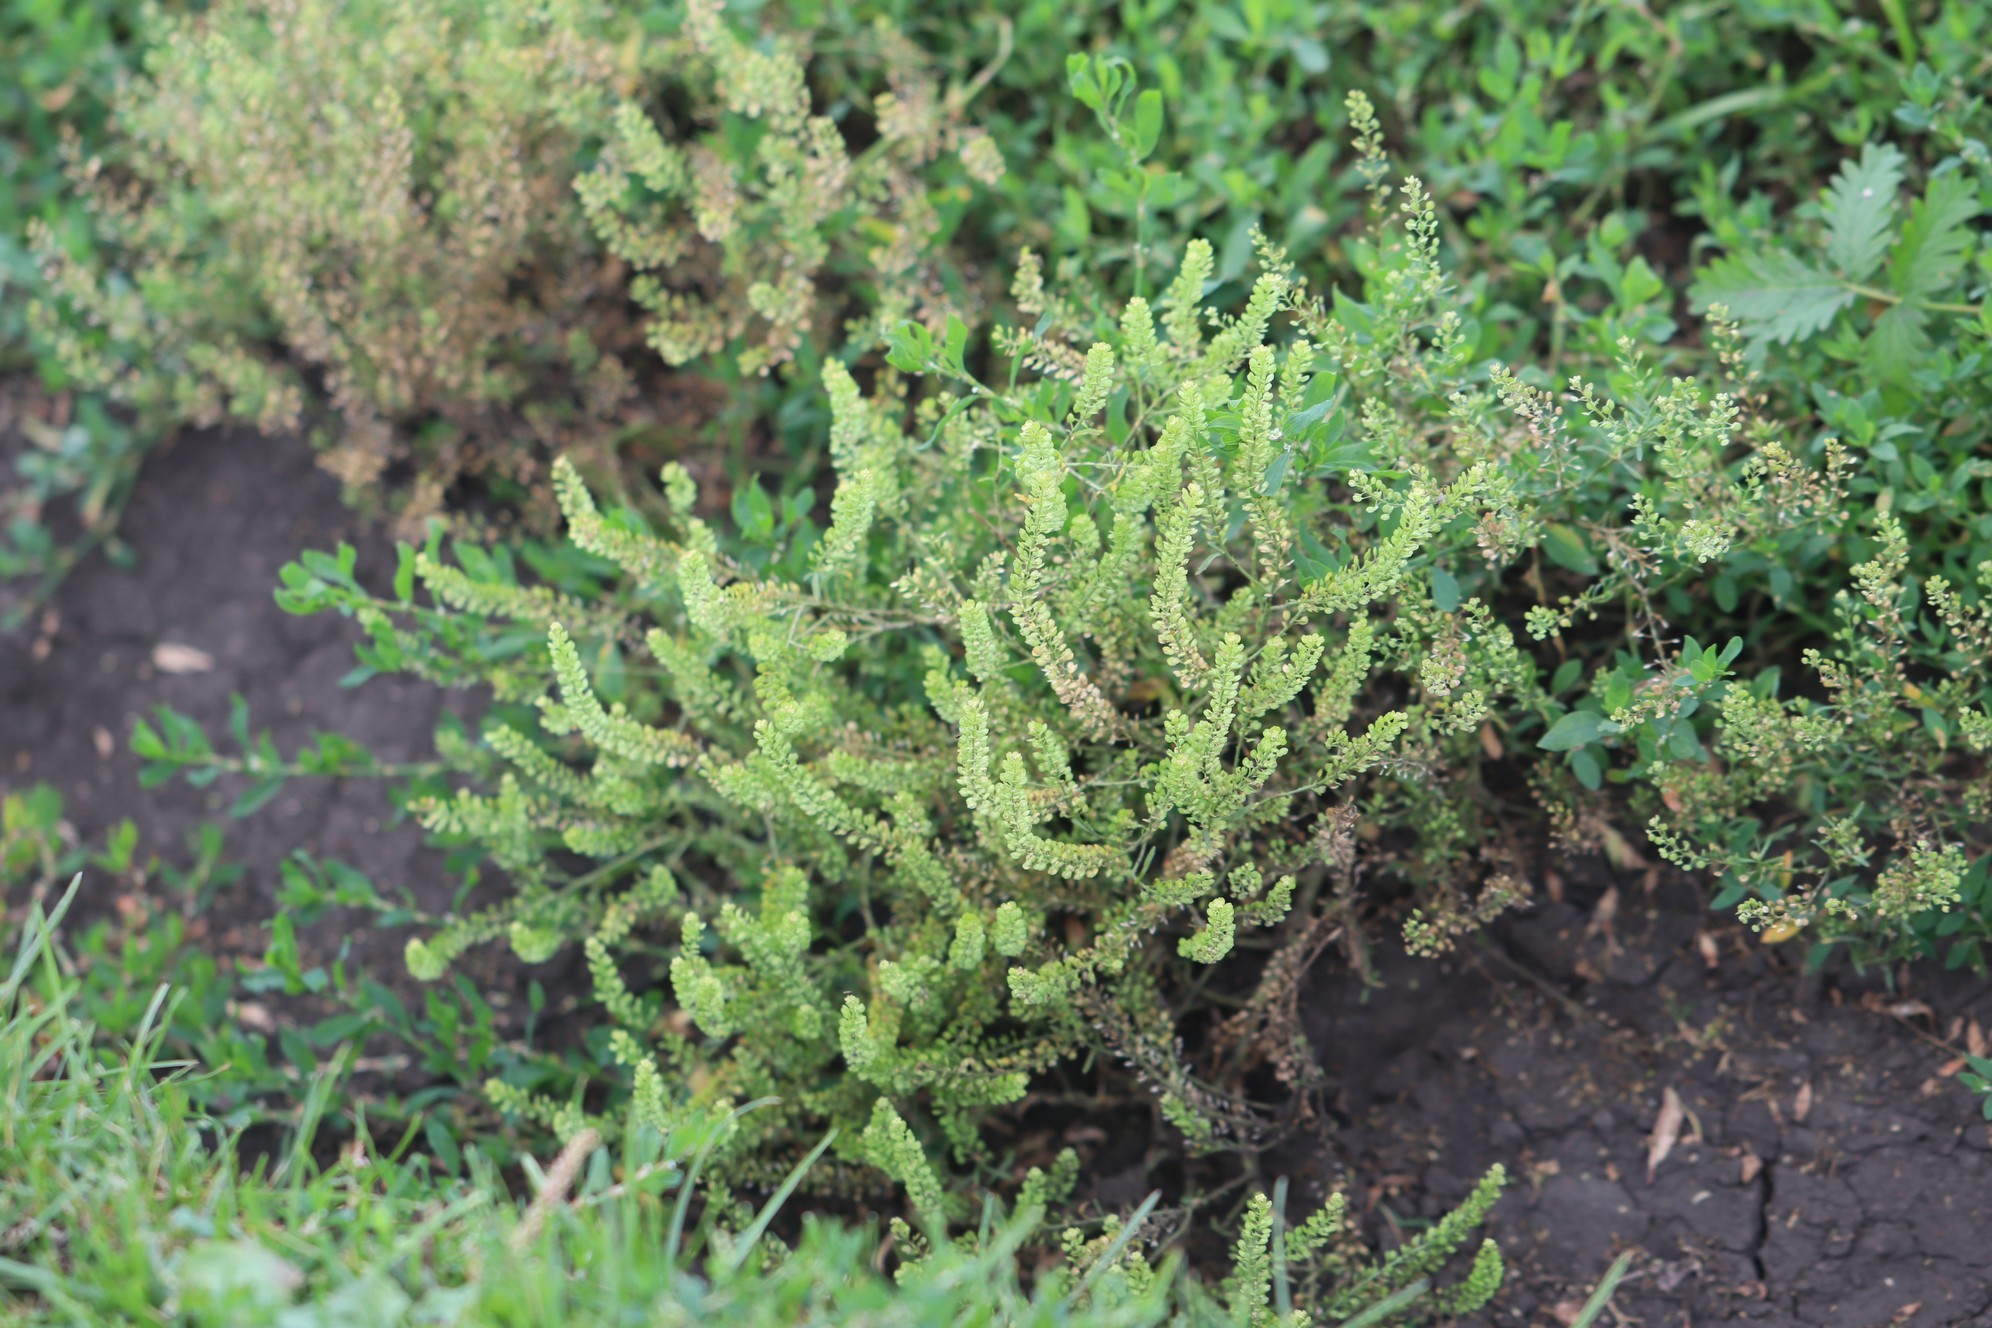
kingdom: Plantae
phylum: Tracheophyta
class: Magnoliopsida
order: Brassicales
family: Brassicaceae
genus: Lepidium
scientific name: Lepidium densiflorum
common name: Miner's pepperwort
